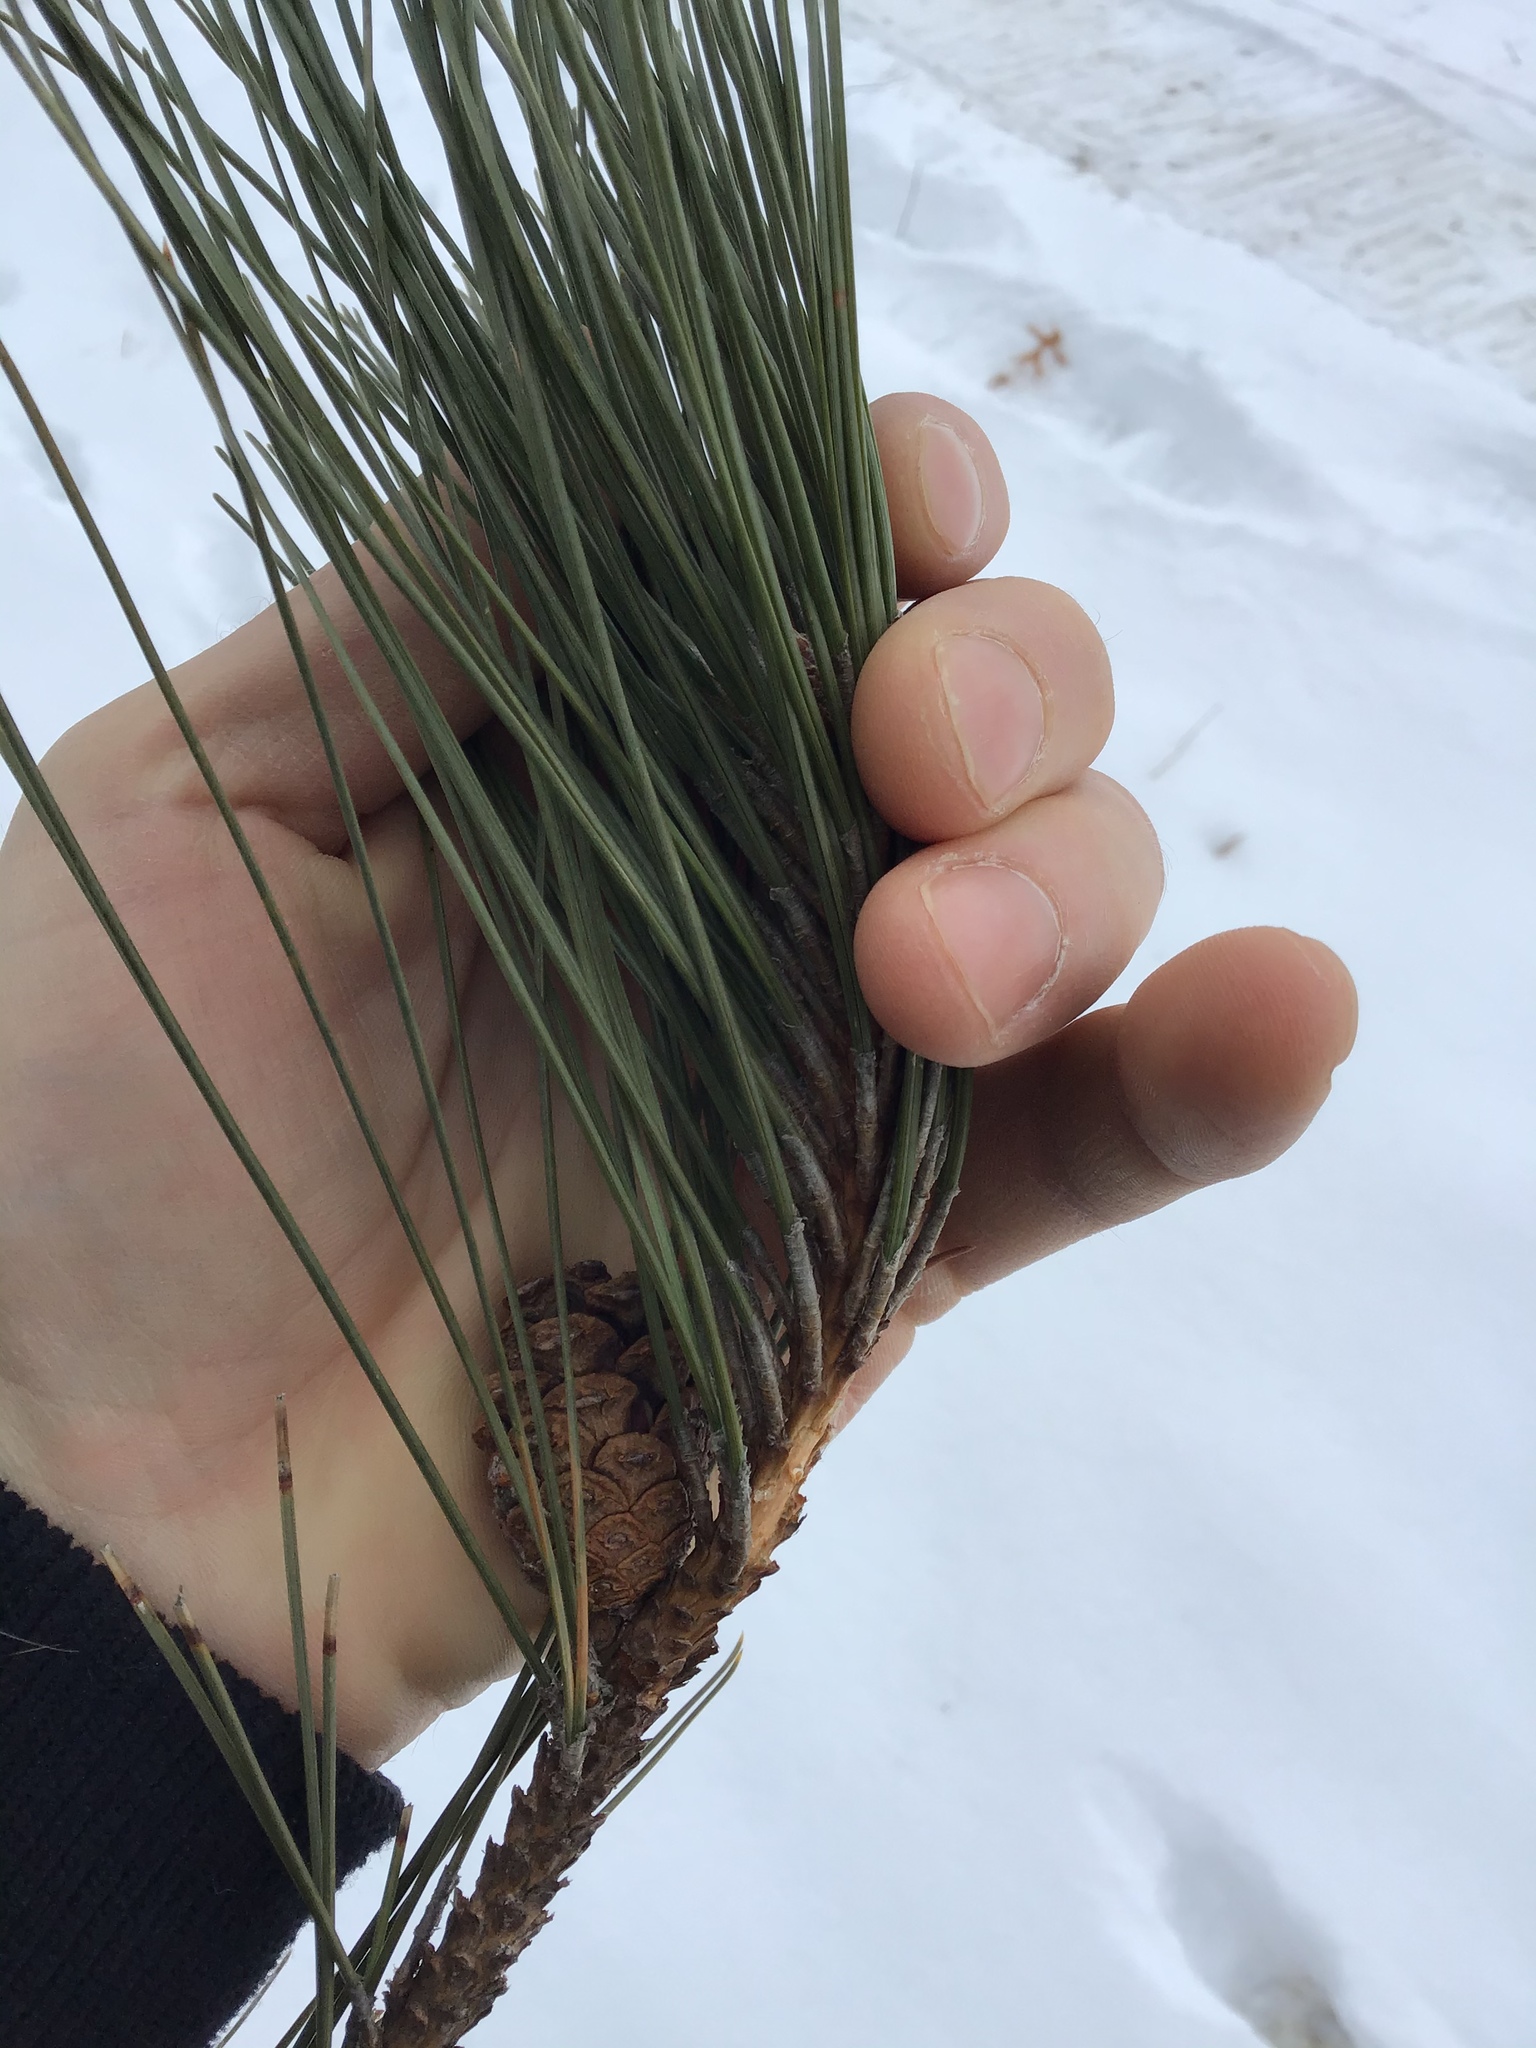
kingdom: Plantae
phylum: Tracheophyta
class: Pinopsida
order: Pinales
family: Pinaceae
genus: Pinus
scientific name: Pinus resinosa
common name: Norway pine
